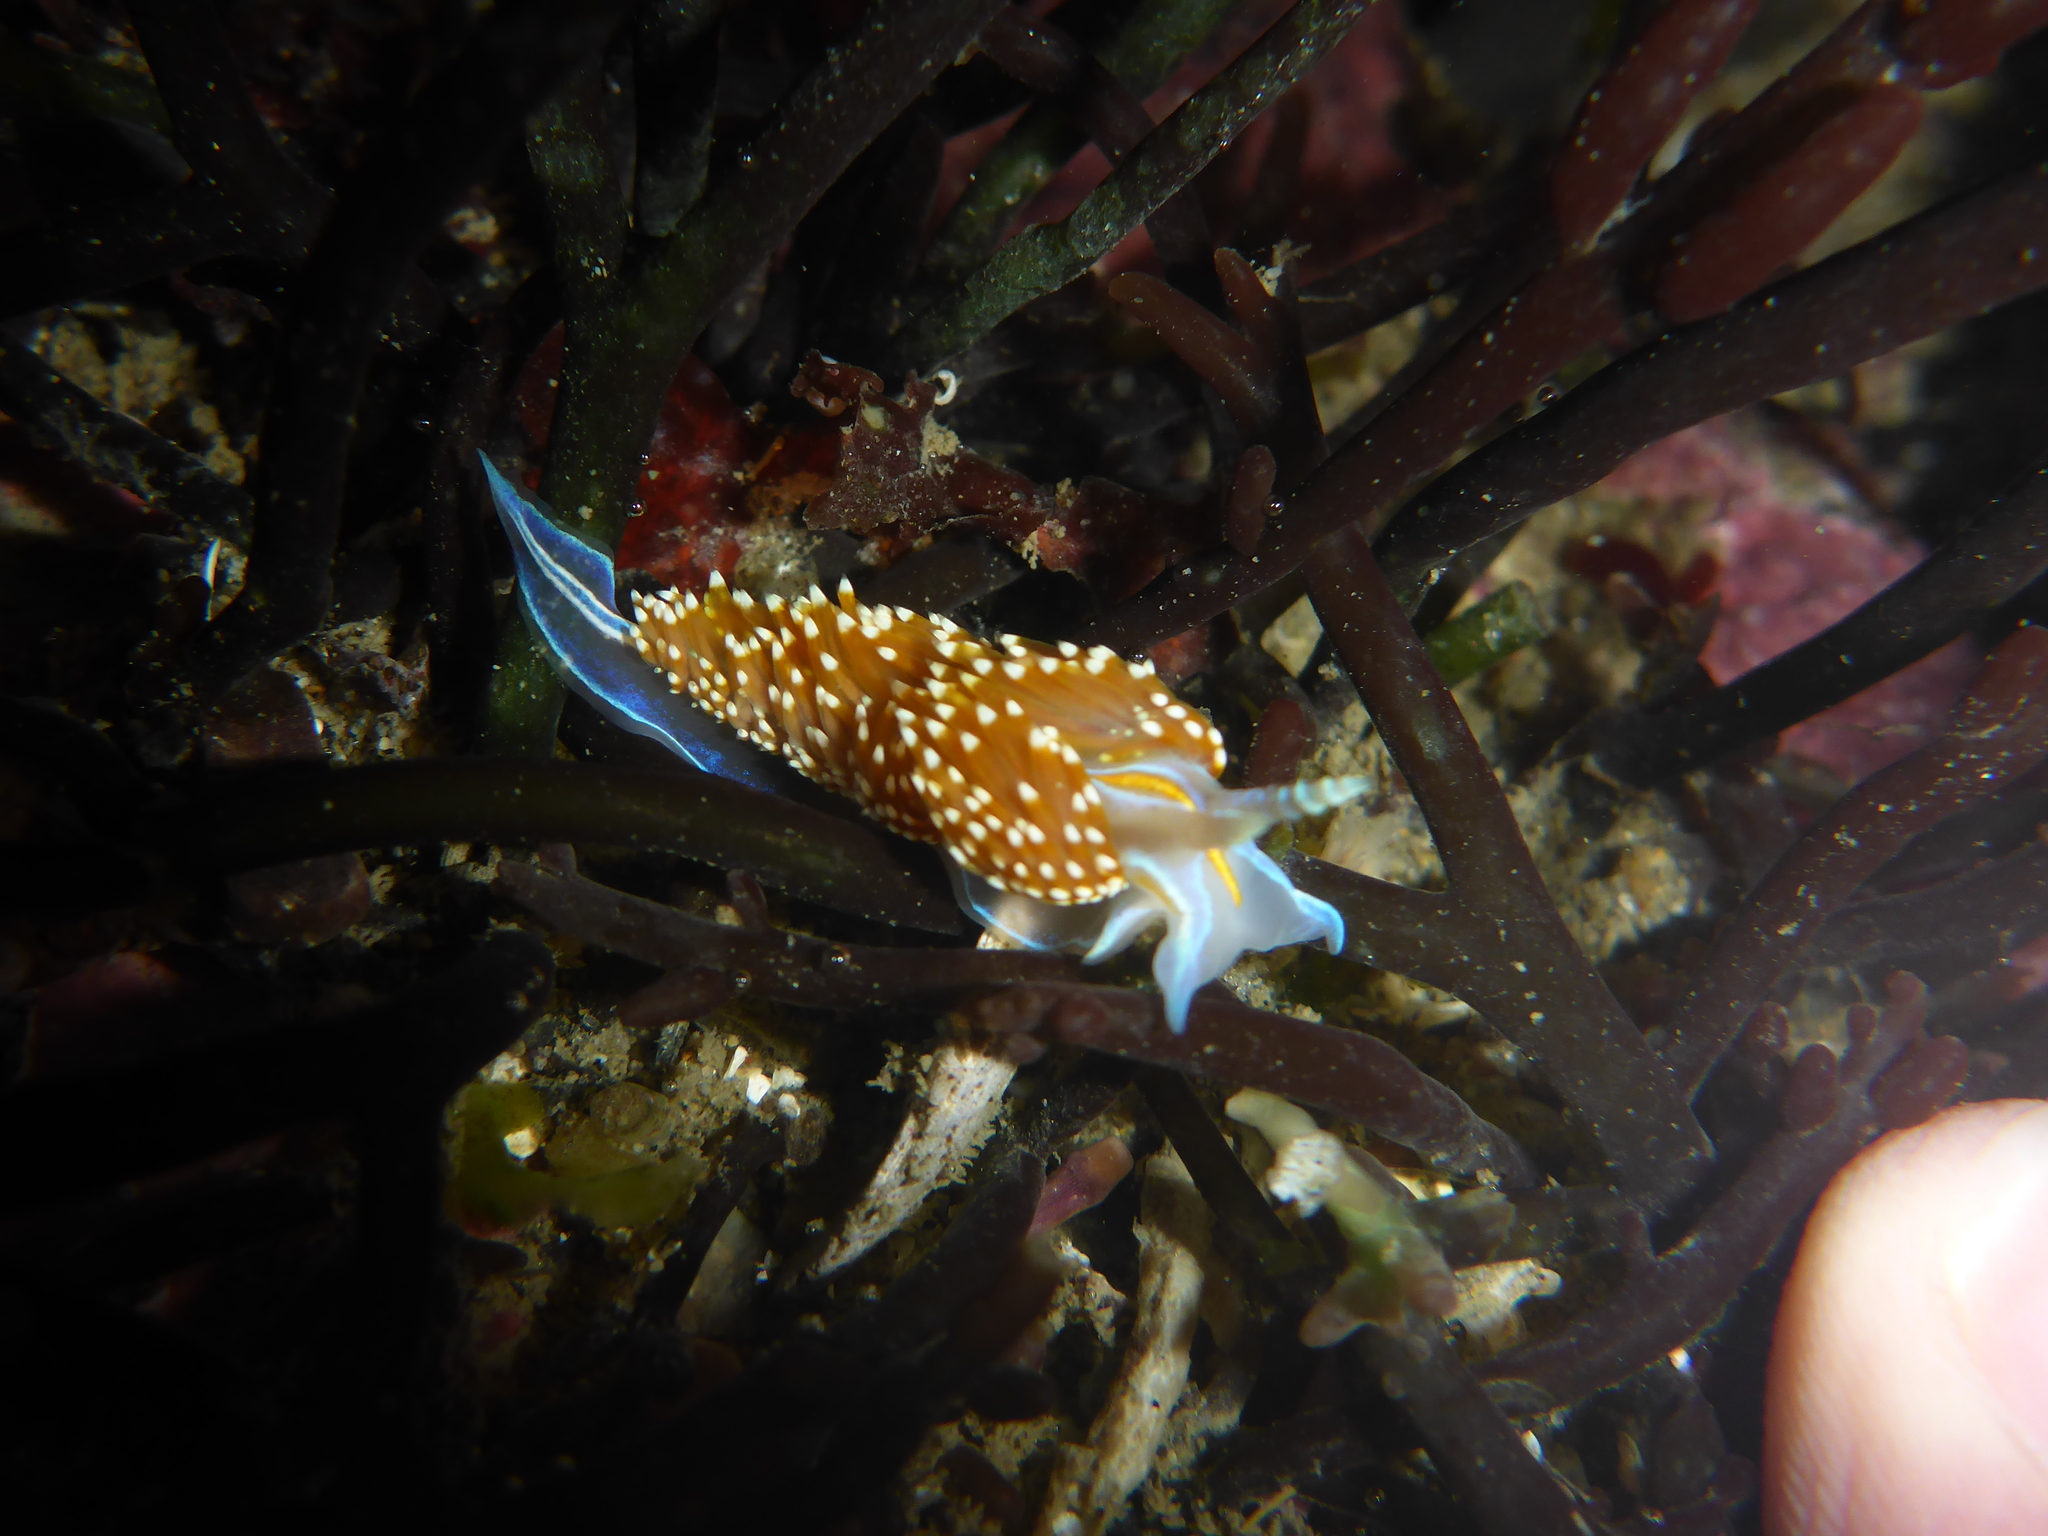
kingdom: Animalia
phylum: Mollusca
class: Gastropoda
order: Nudibranchia
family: Myrrhinidae
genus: Hermissenda
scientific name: Hermissenda opalescens
